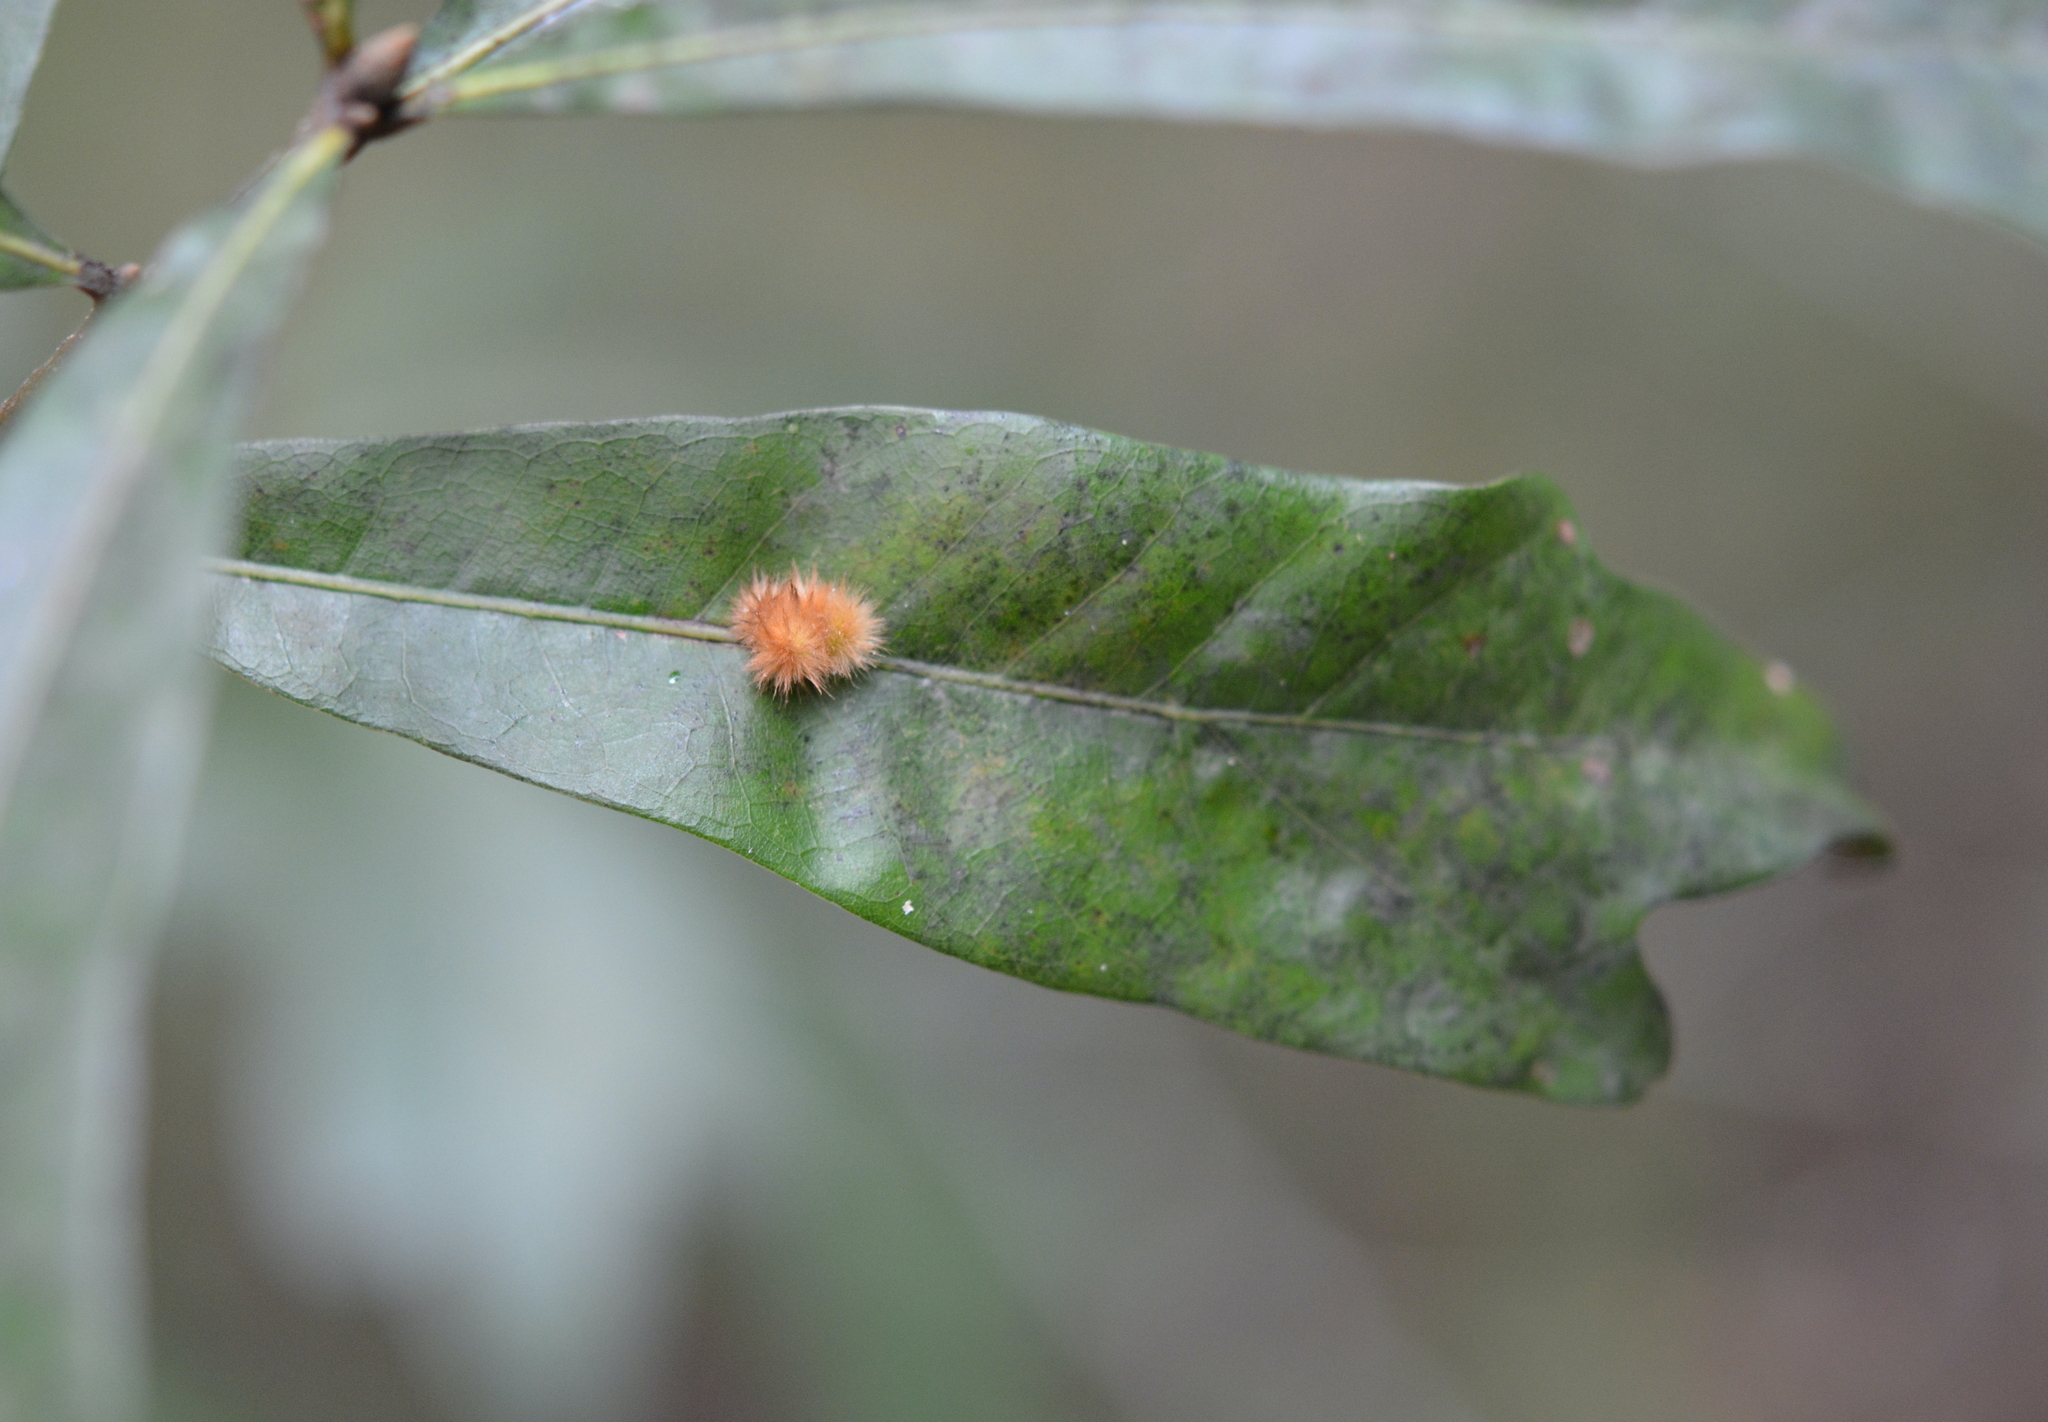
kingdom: Animalia
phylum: Arthropoda
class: Insecta
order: Hymenoptera
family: Cynipidae
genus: Callirhytis
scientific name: Callirhytis
